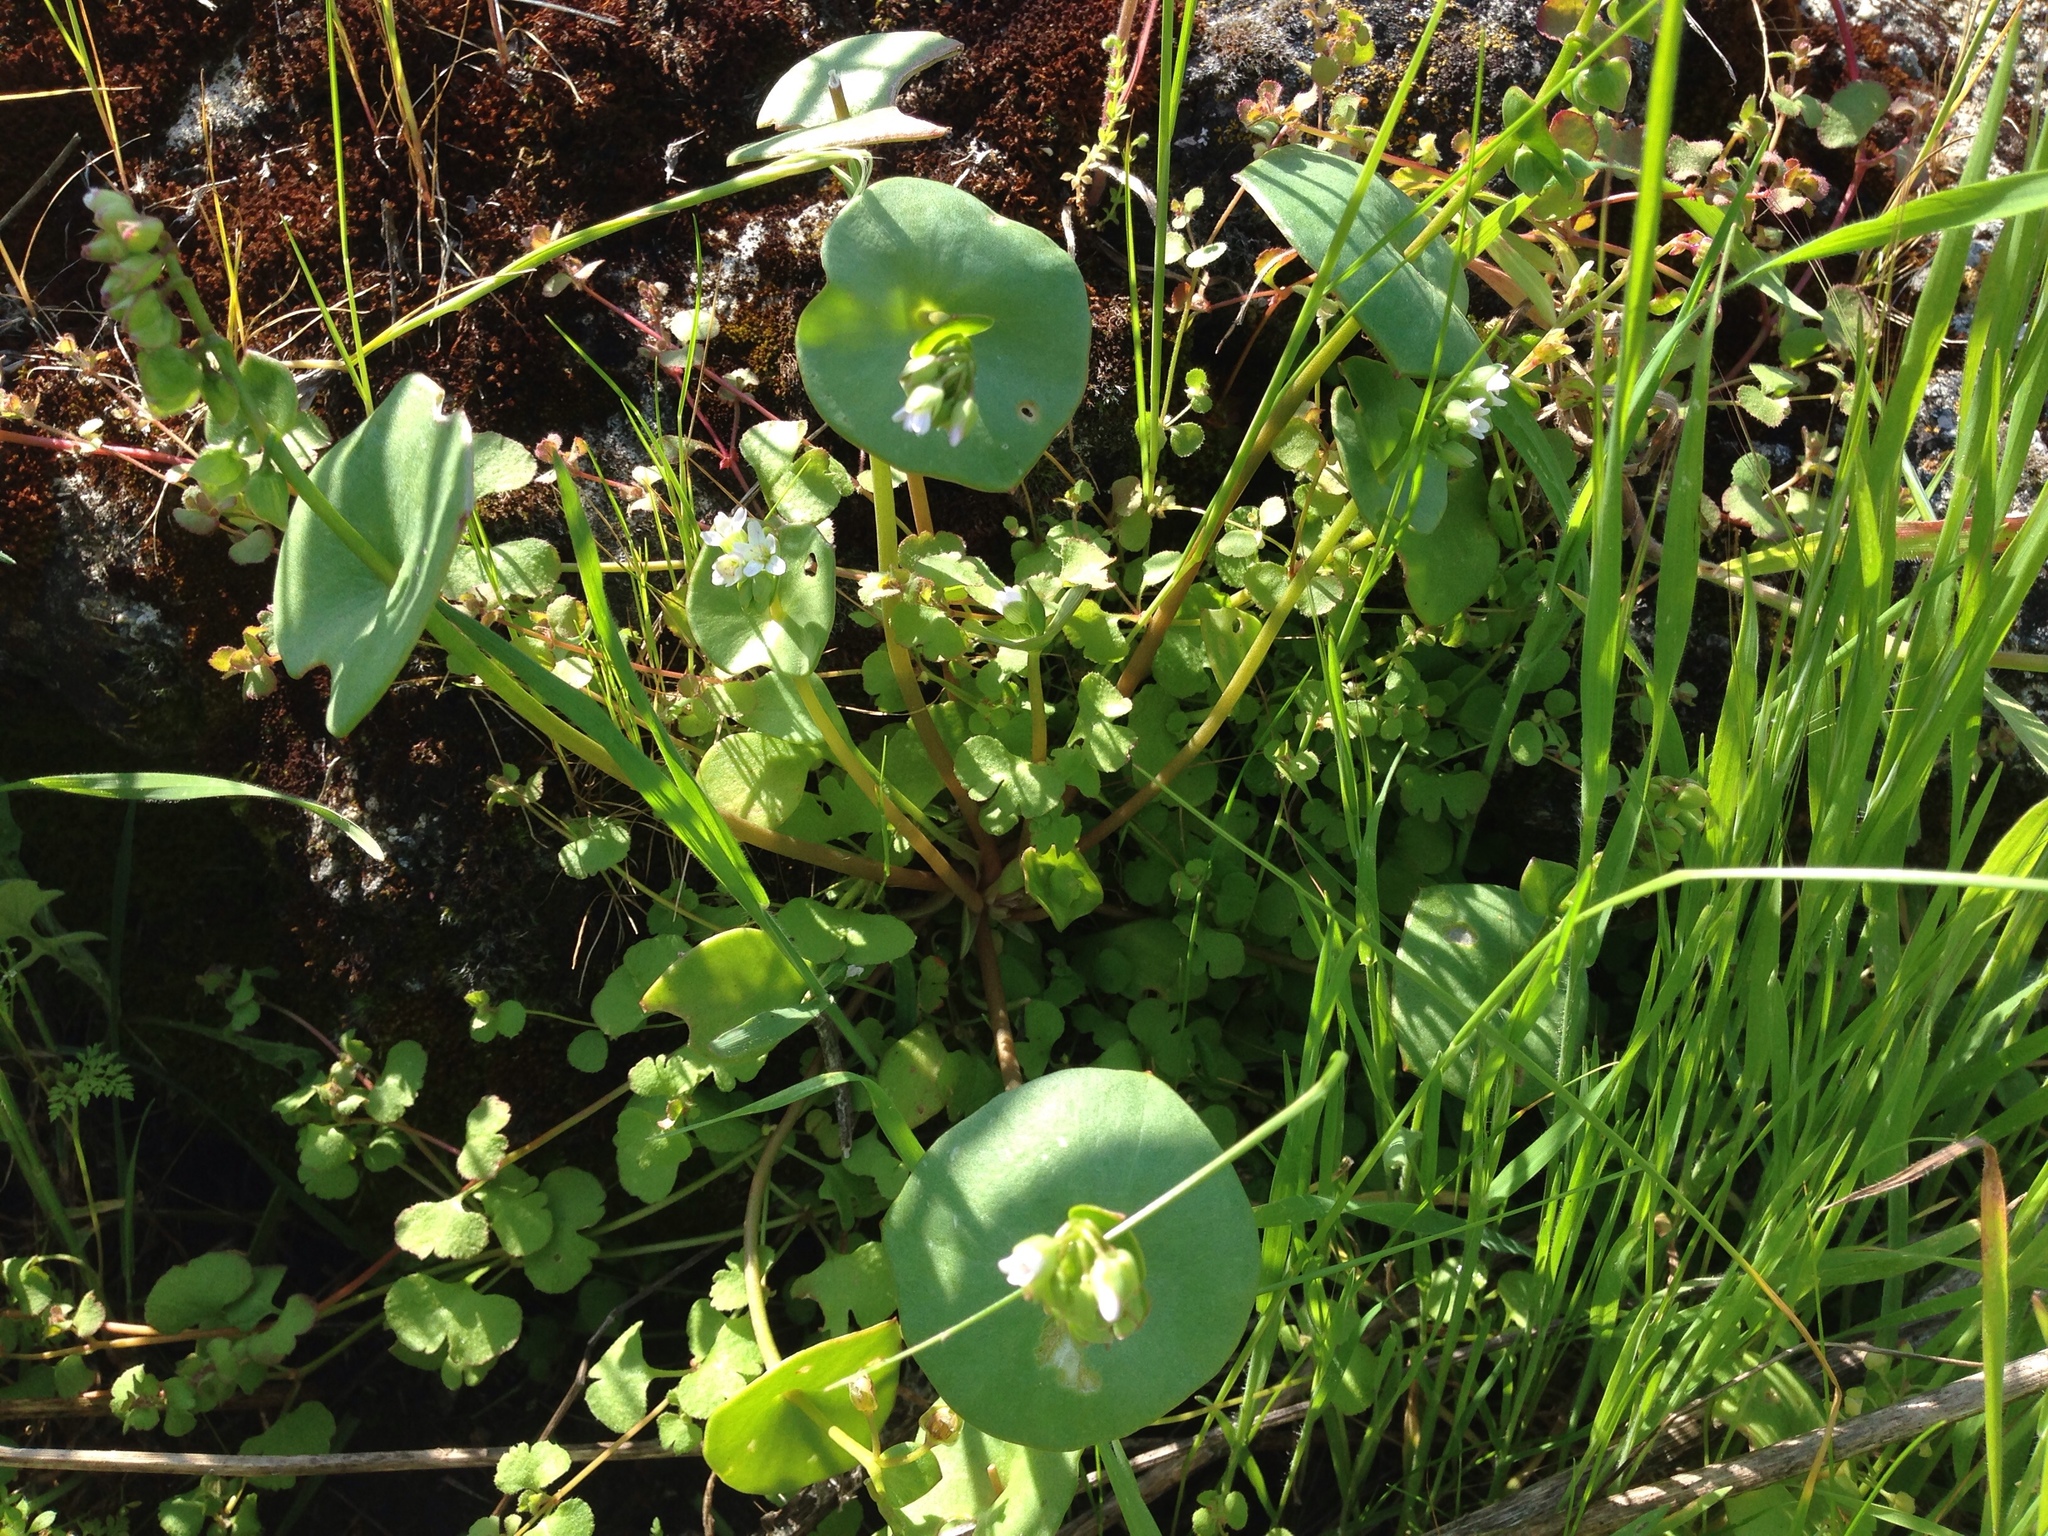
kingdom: Plantae
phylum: Tracheophyta
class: Magnoliopsida
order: Caryophyllales
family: Montiaceae
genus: Claytonia
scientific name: Claytonia perfoliata
